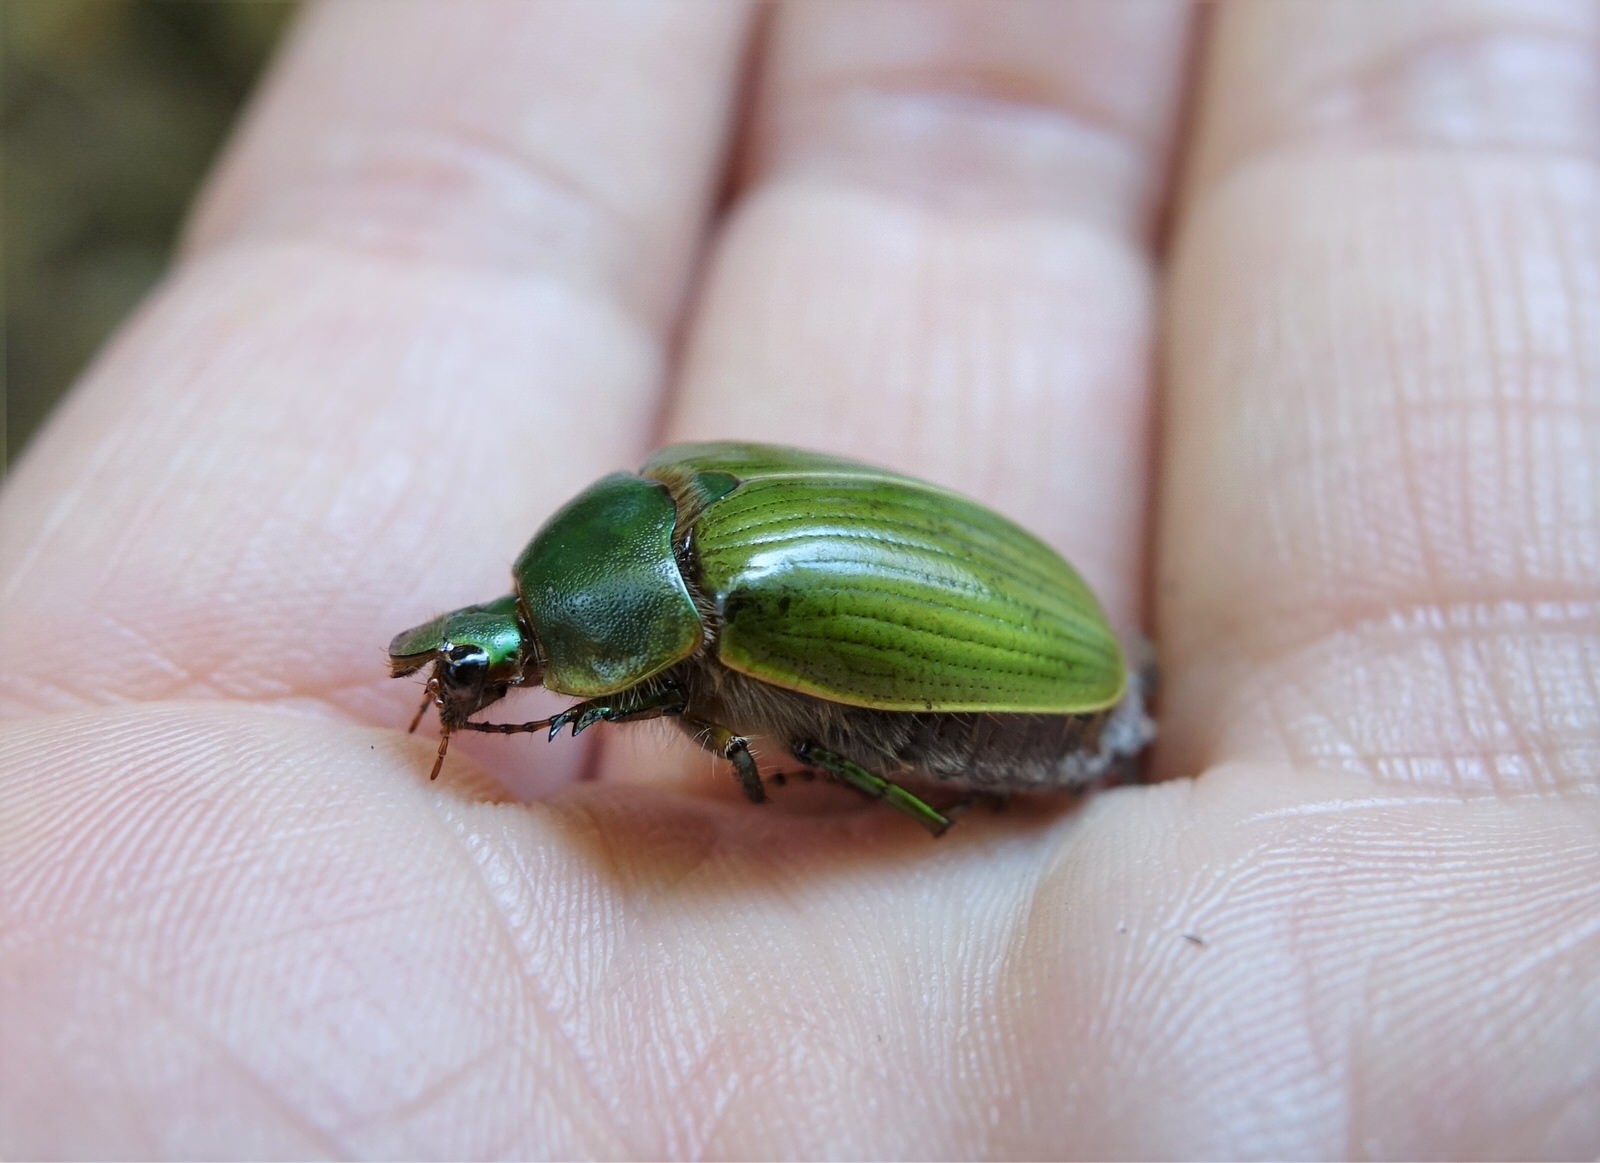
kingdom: Animalia
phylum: Arthropoda
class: Insecta
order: Coleoptera
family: Scarabaeidae
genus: Stethaspis
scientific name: Stethaspis longicornis
